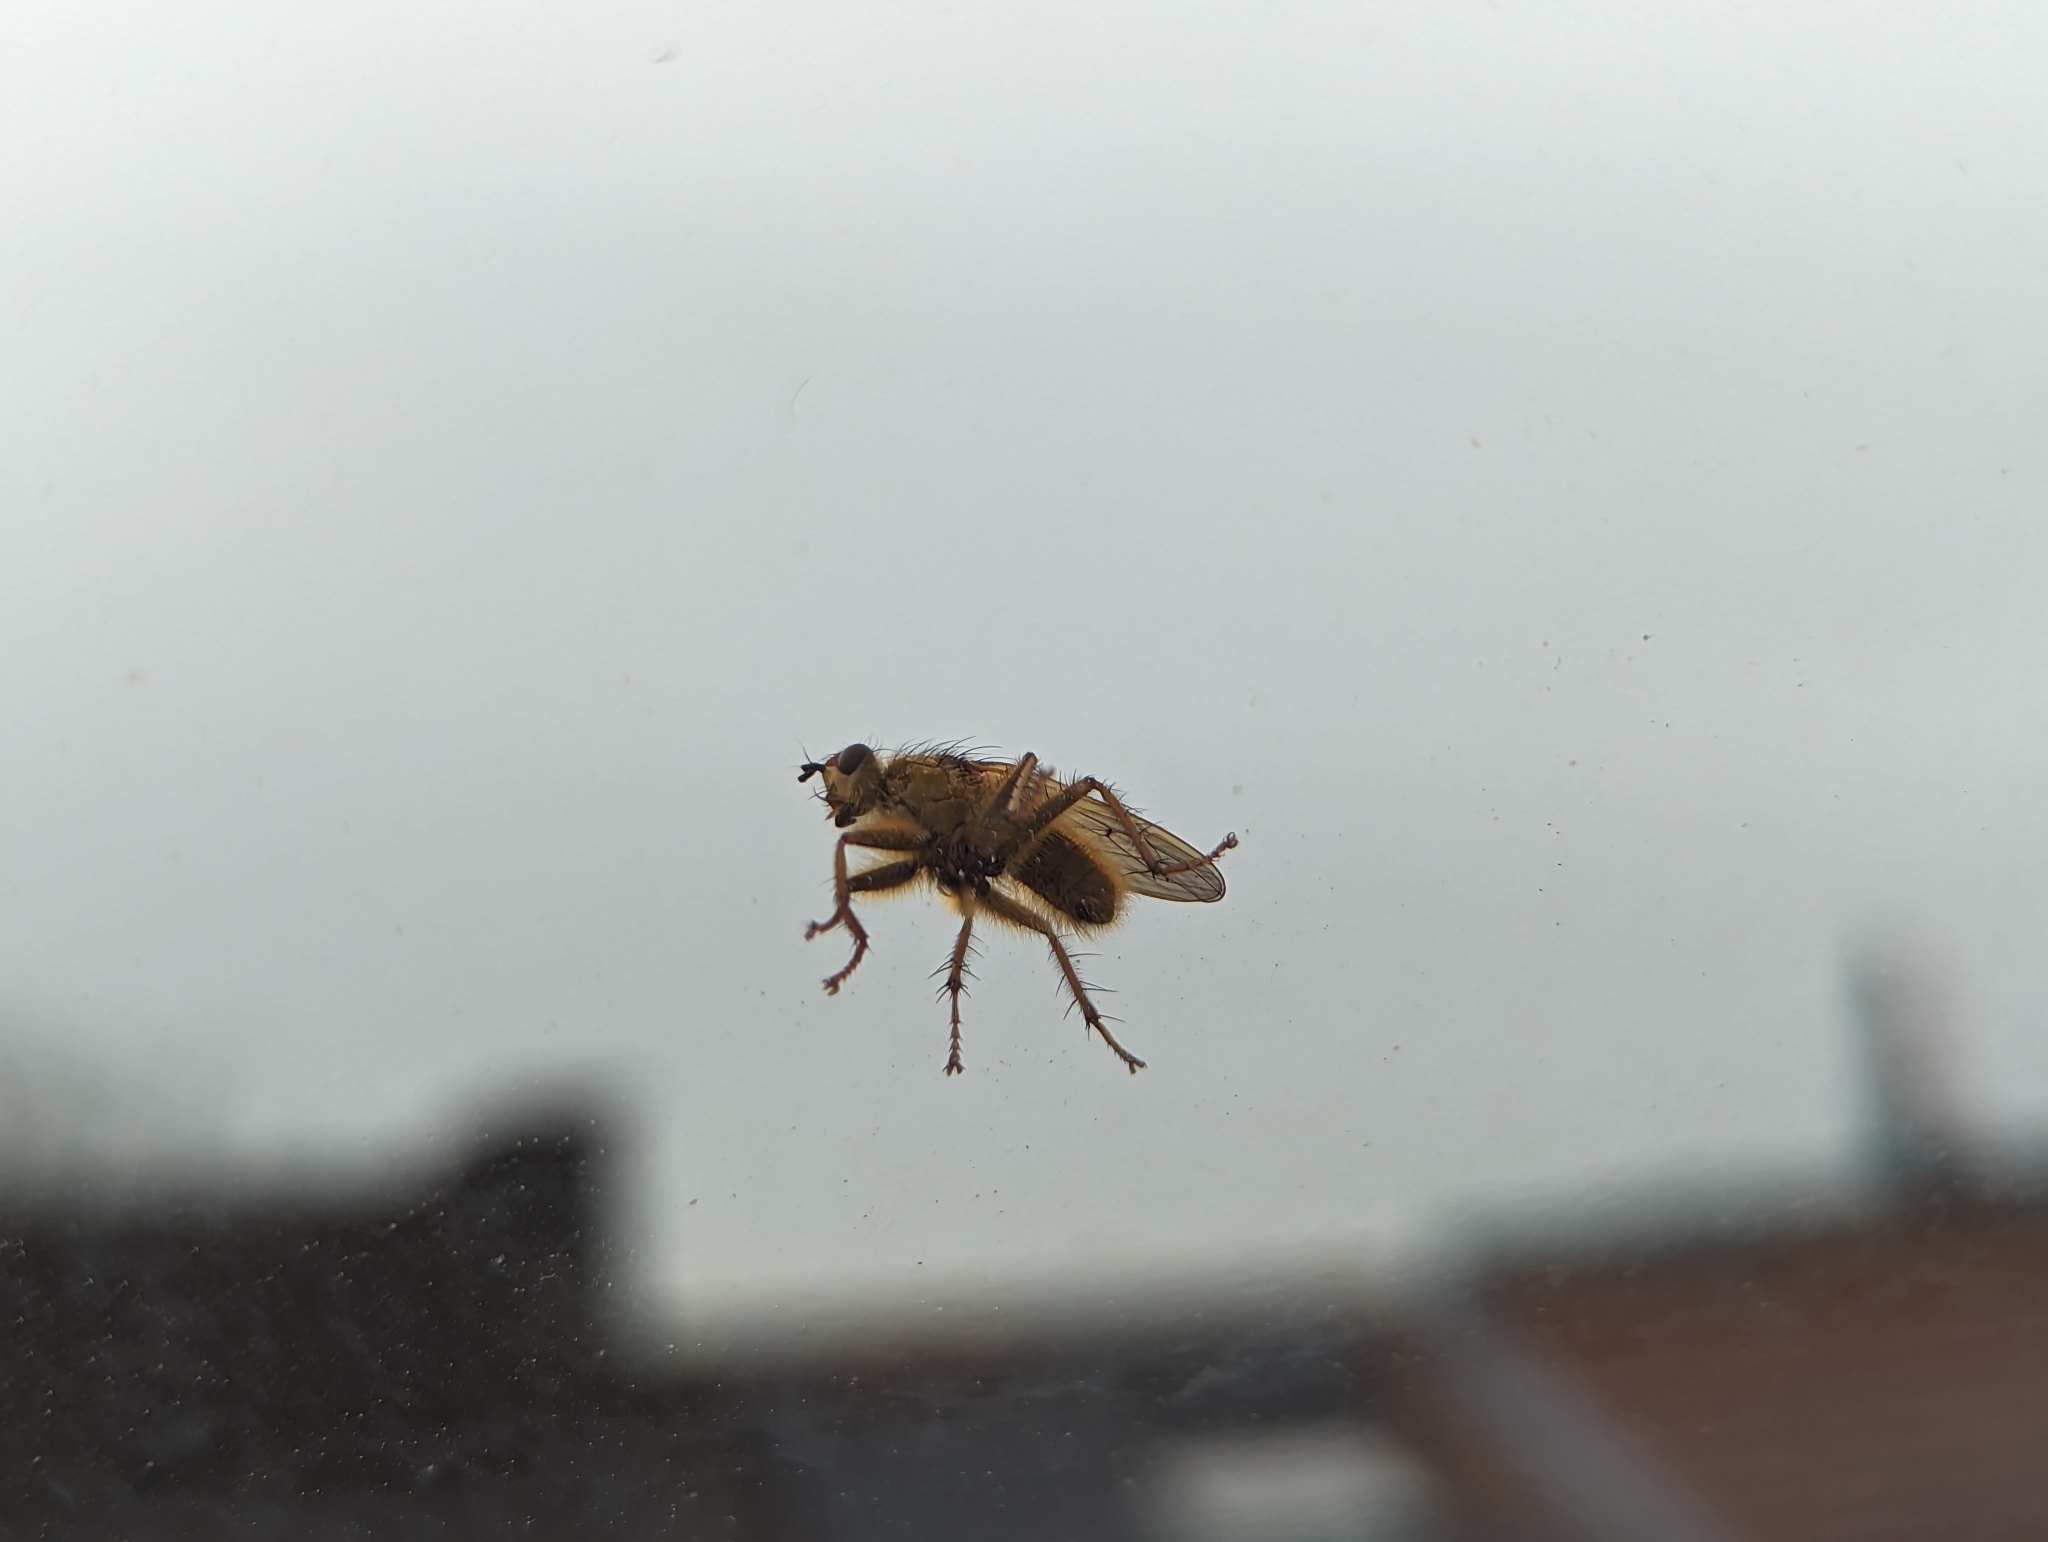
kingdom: Animalia
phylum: Arthropoda
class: Insecta
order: Diptera
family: Scathophagidae
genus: Scathophaga
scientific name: Scathophaga stercoraria
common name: Yellow dung fly
